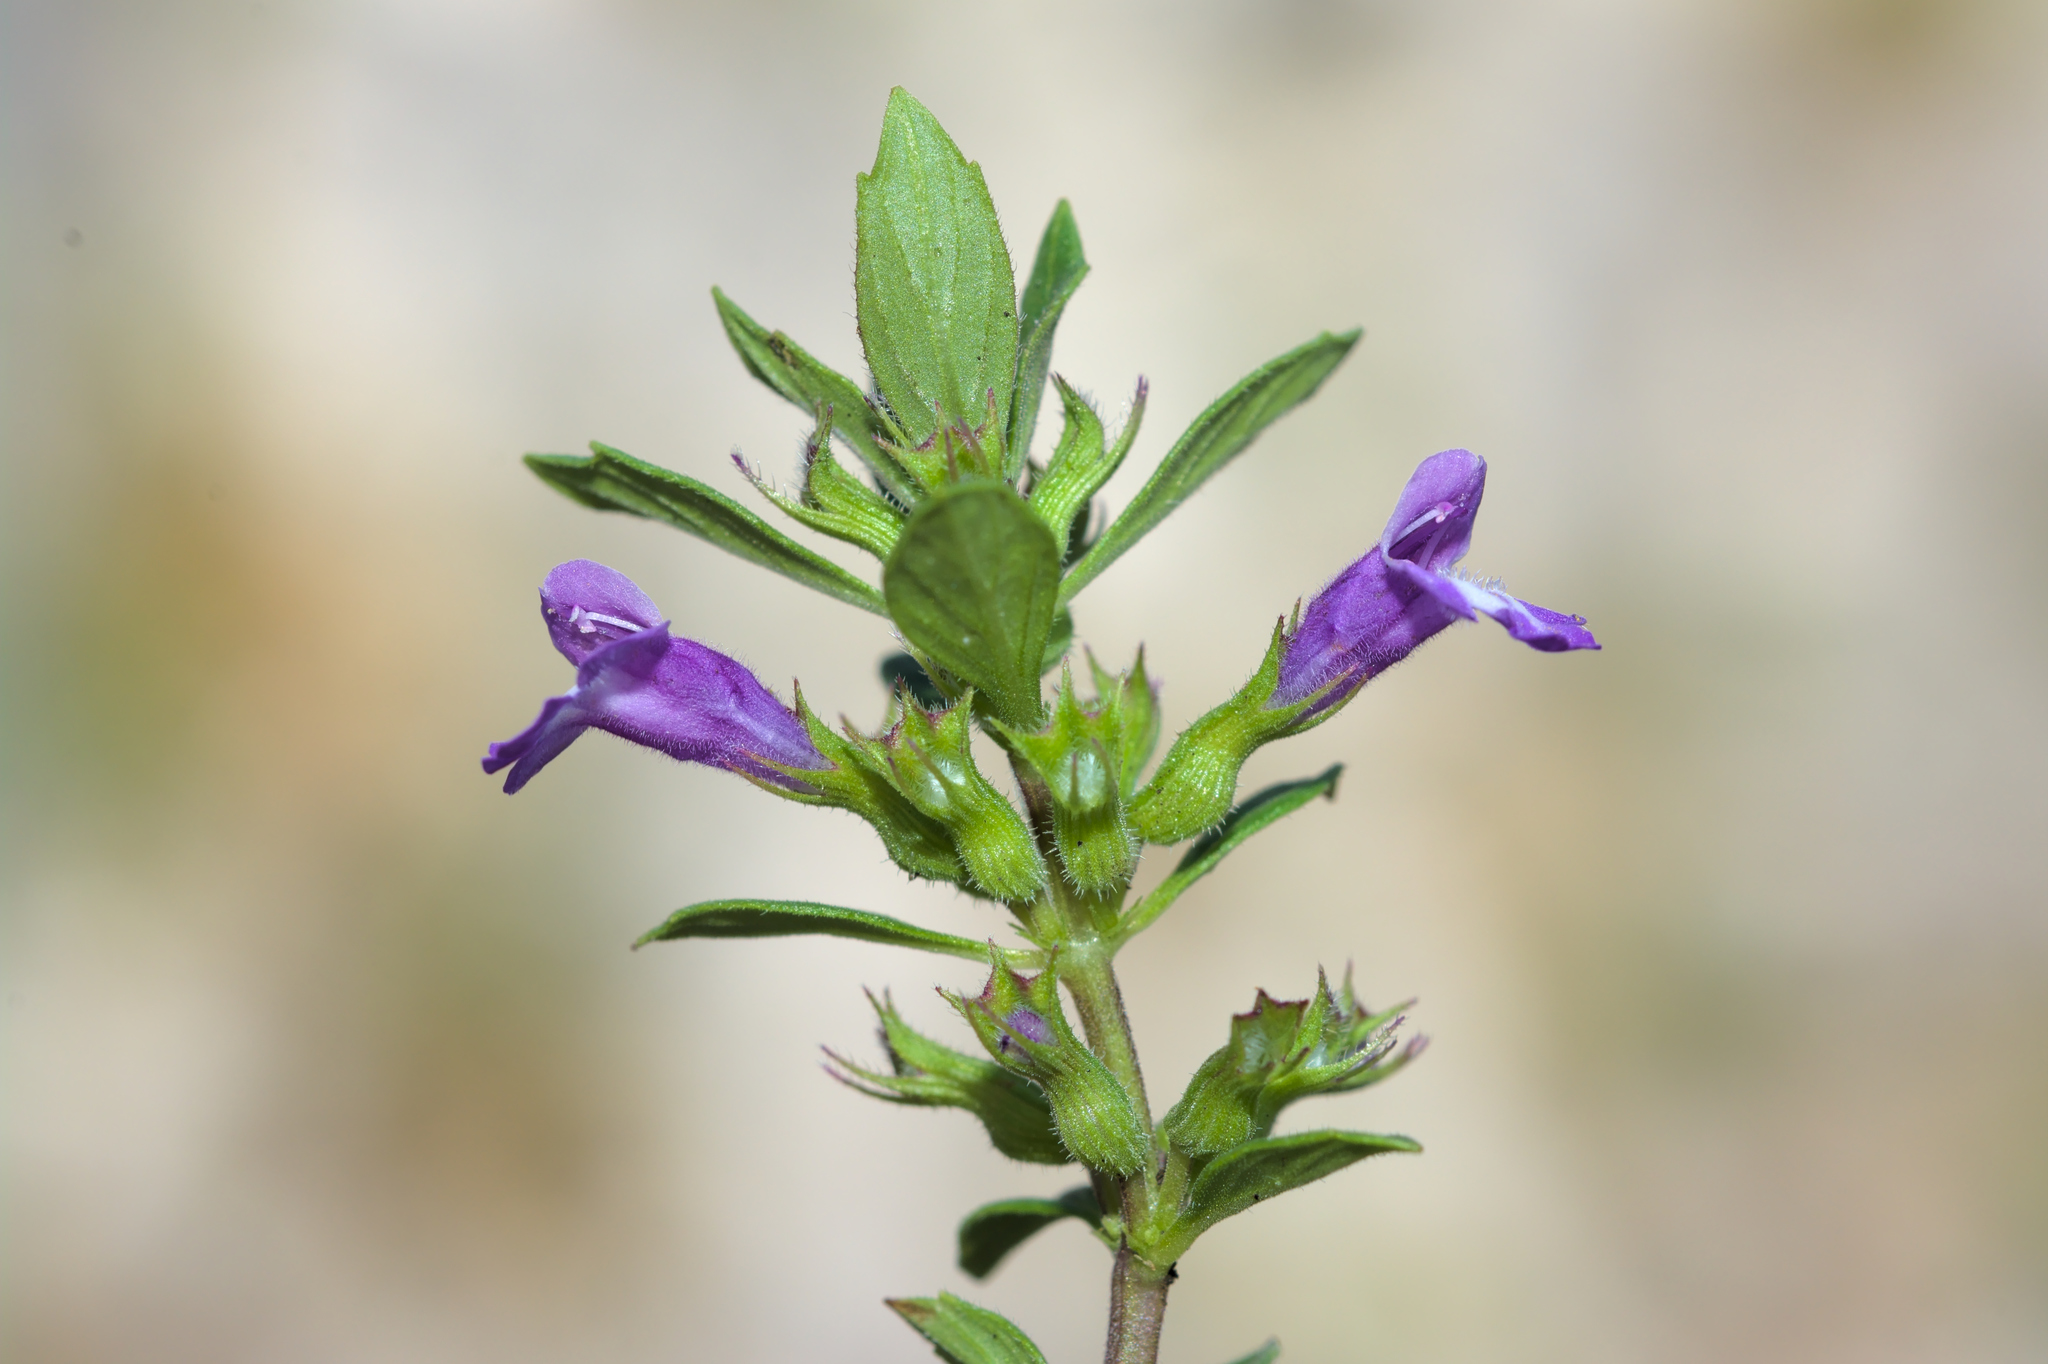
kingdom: Plantae
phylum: Tracheophyta
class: Magnoliopsida
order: Lamiales
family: Lamiaceae
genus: Clinopodium
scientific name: Clinopodium acinos
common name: Basil thyme
